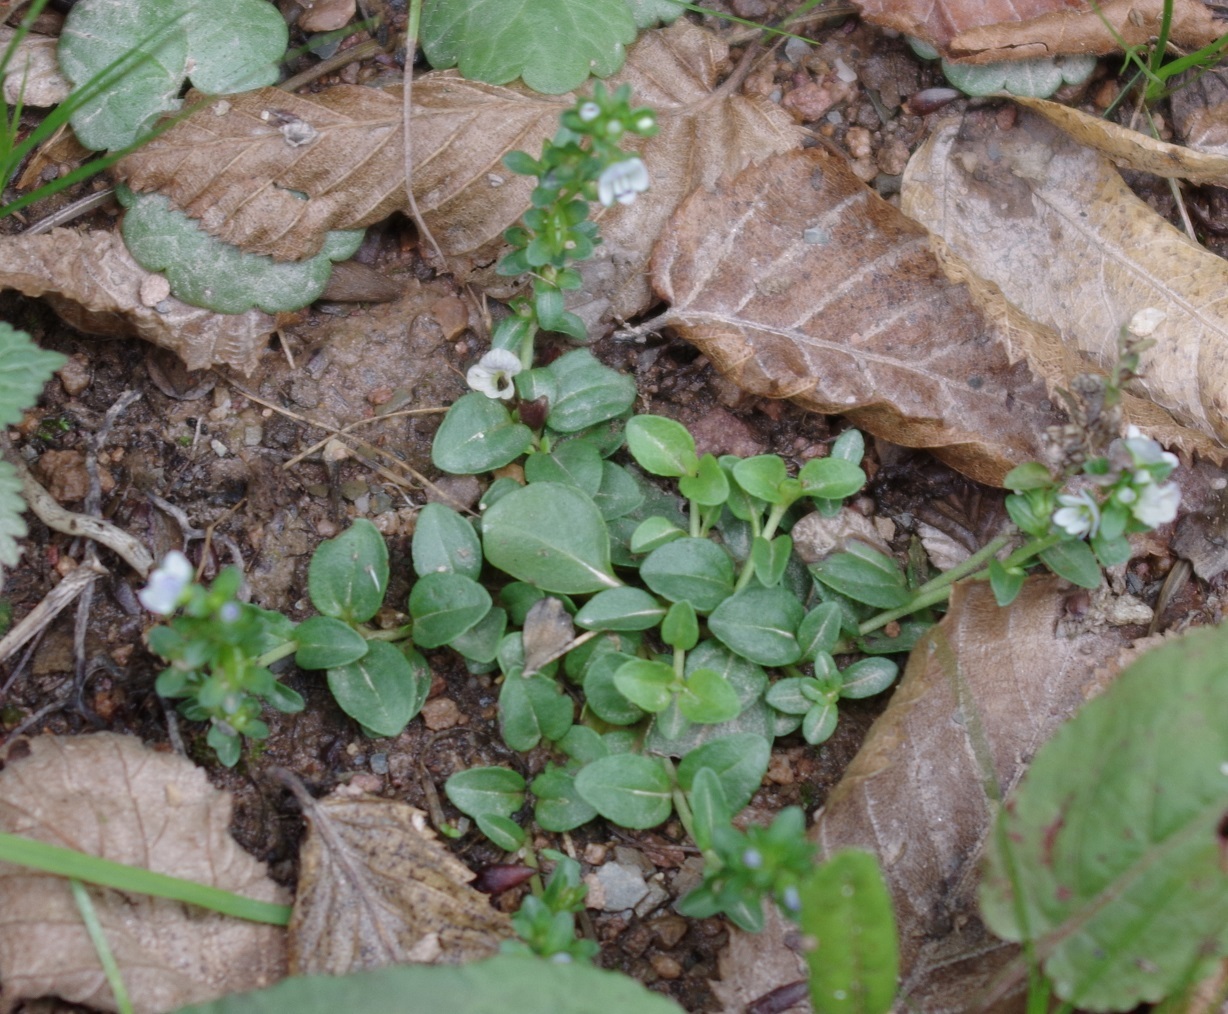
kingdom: Plantae
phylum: Tracheophyta
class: Magnoliopsida
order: Lamiales
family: Plantaginaceae
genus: Veronica
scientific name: Veronica serpyllifolia
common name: Thyme-leaved speedwell
